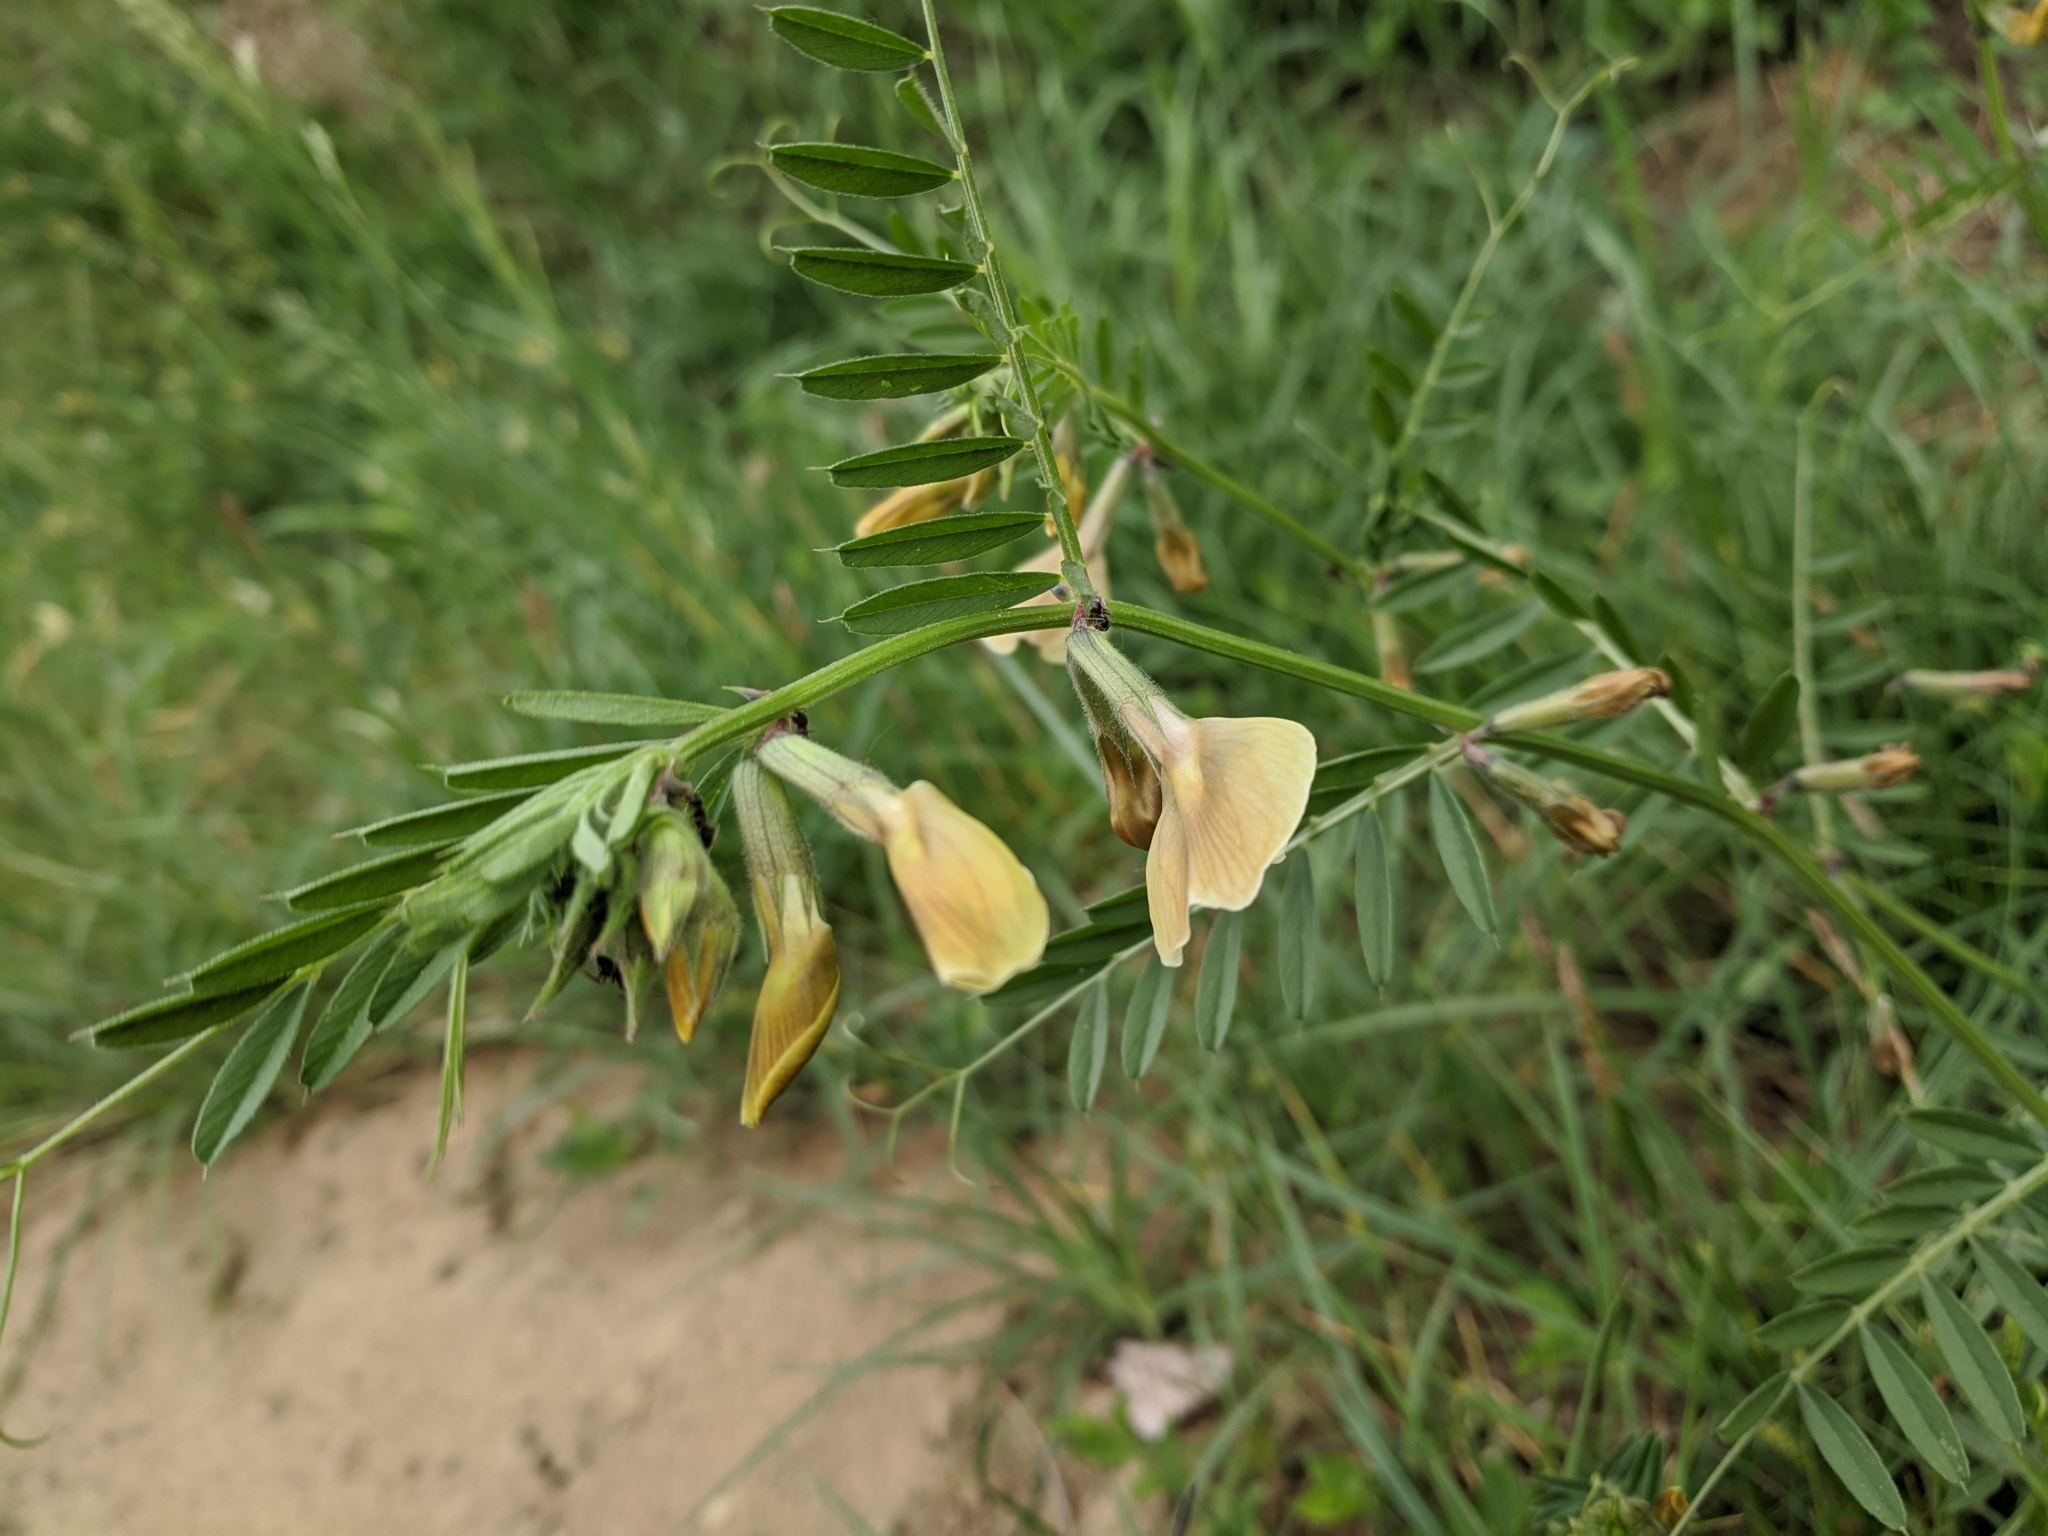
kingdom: Plantae
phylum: Tracheophyta
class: Magnoliopsida
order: Fabales
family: Fabaceae
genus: Vicia
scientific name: Vicia grandiflora
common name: Large yellow vetch
